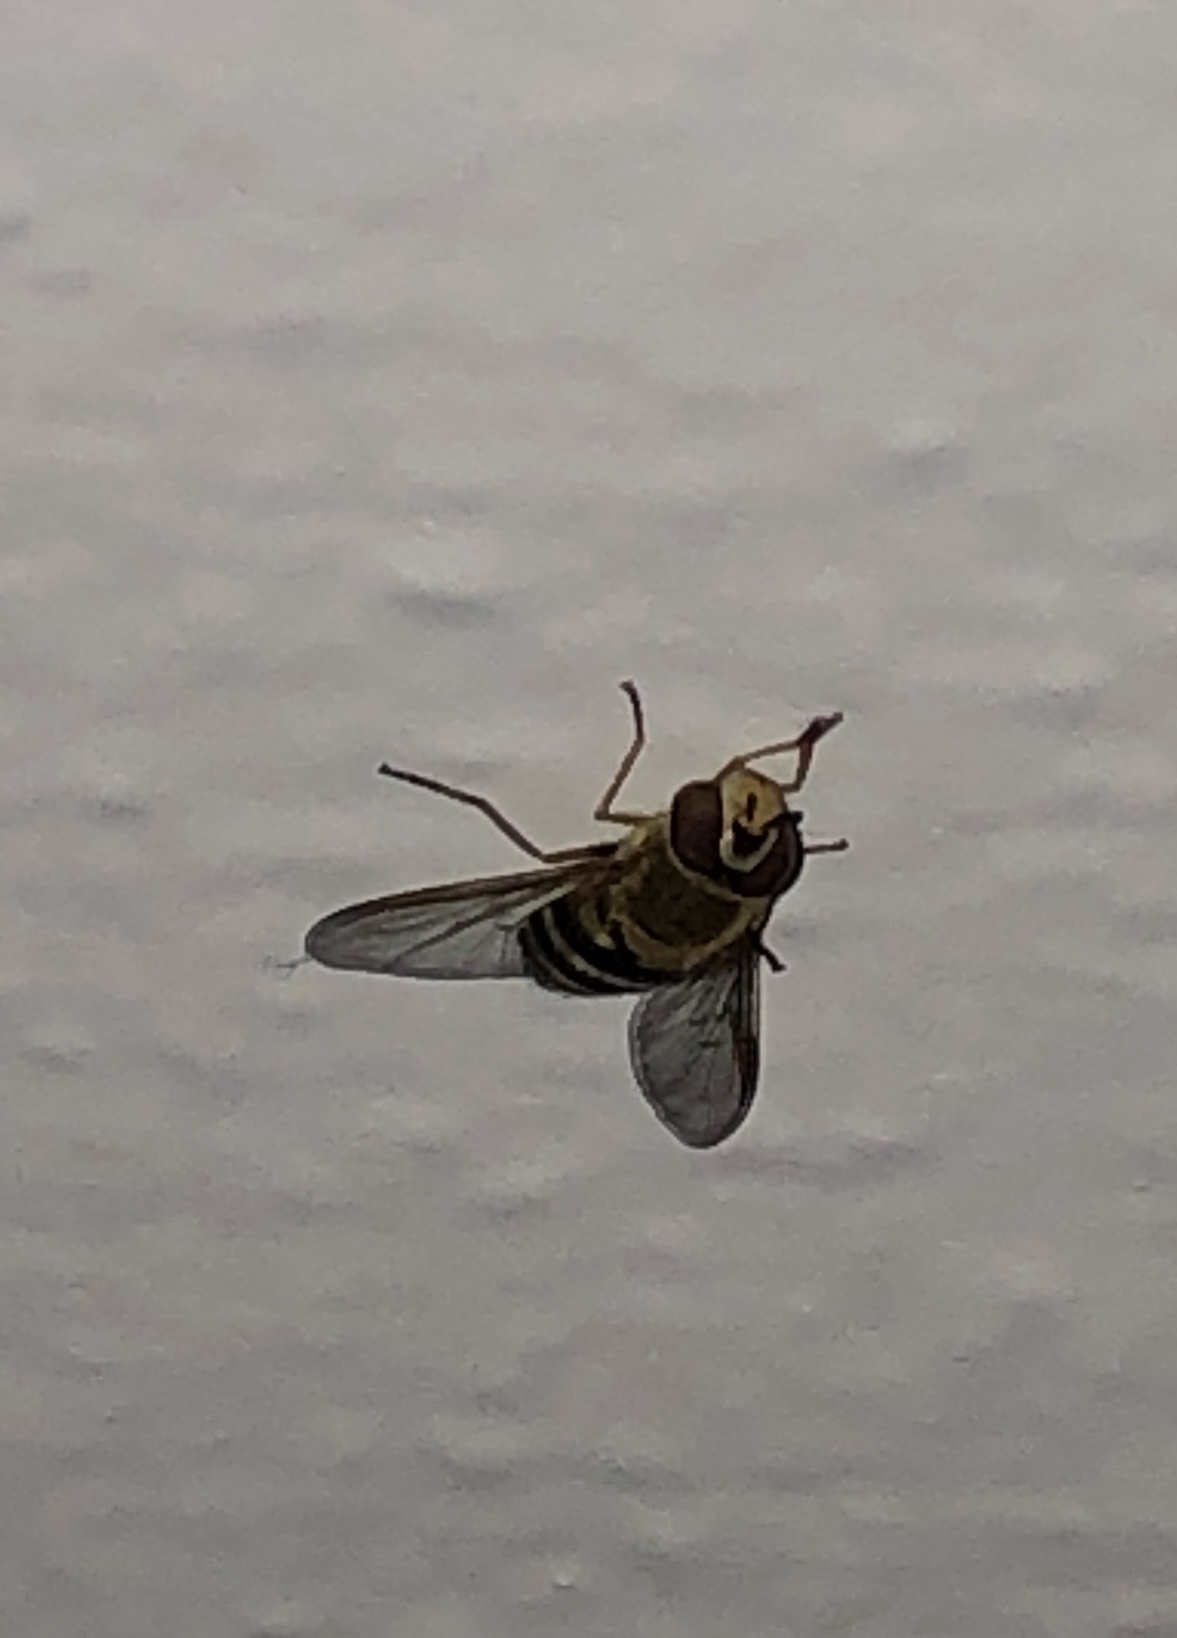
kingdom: Animalia
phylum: Arthropoda
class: Insecta
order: Diptera
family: Syrphidae
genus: Syrphus
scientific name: Syrphus
